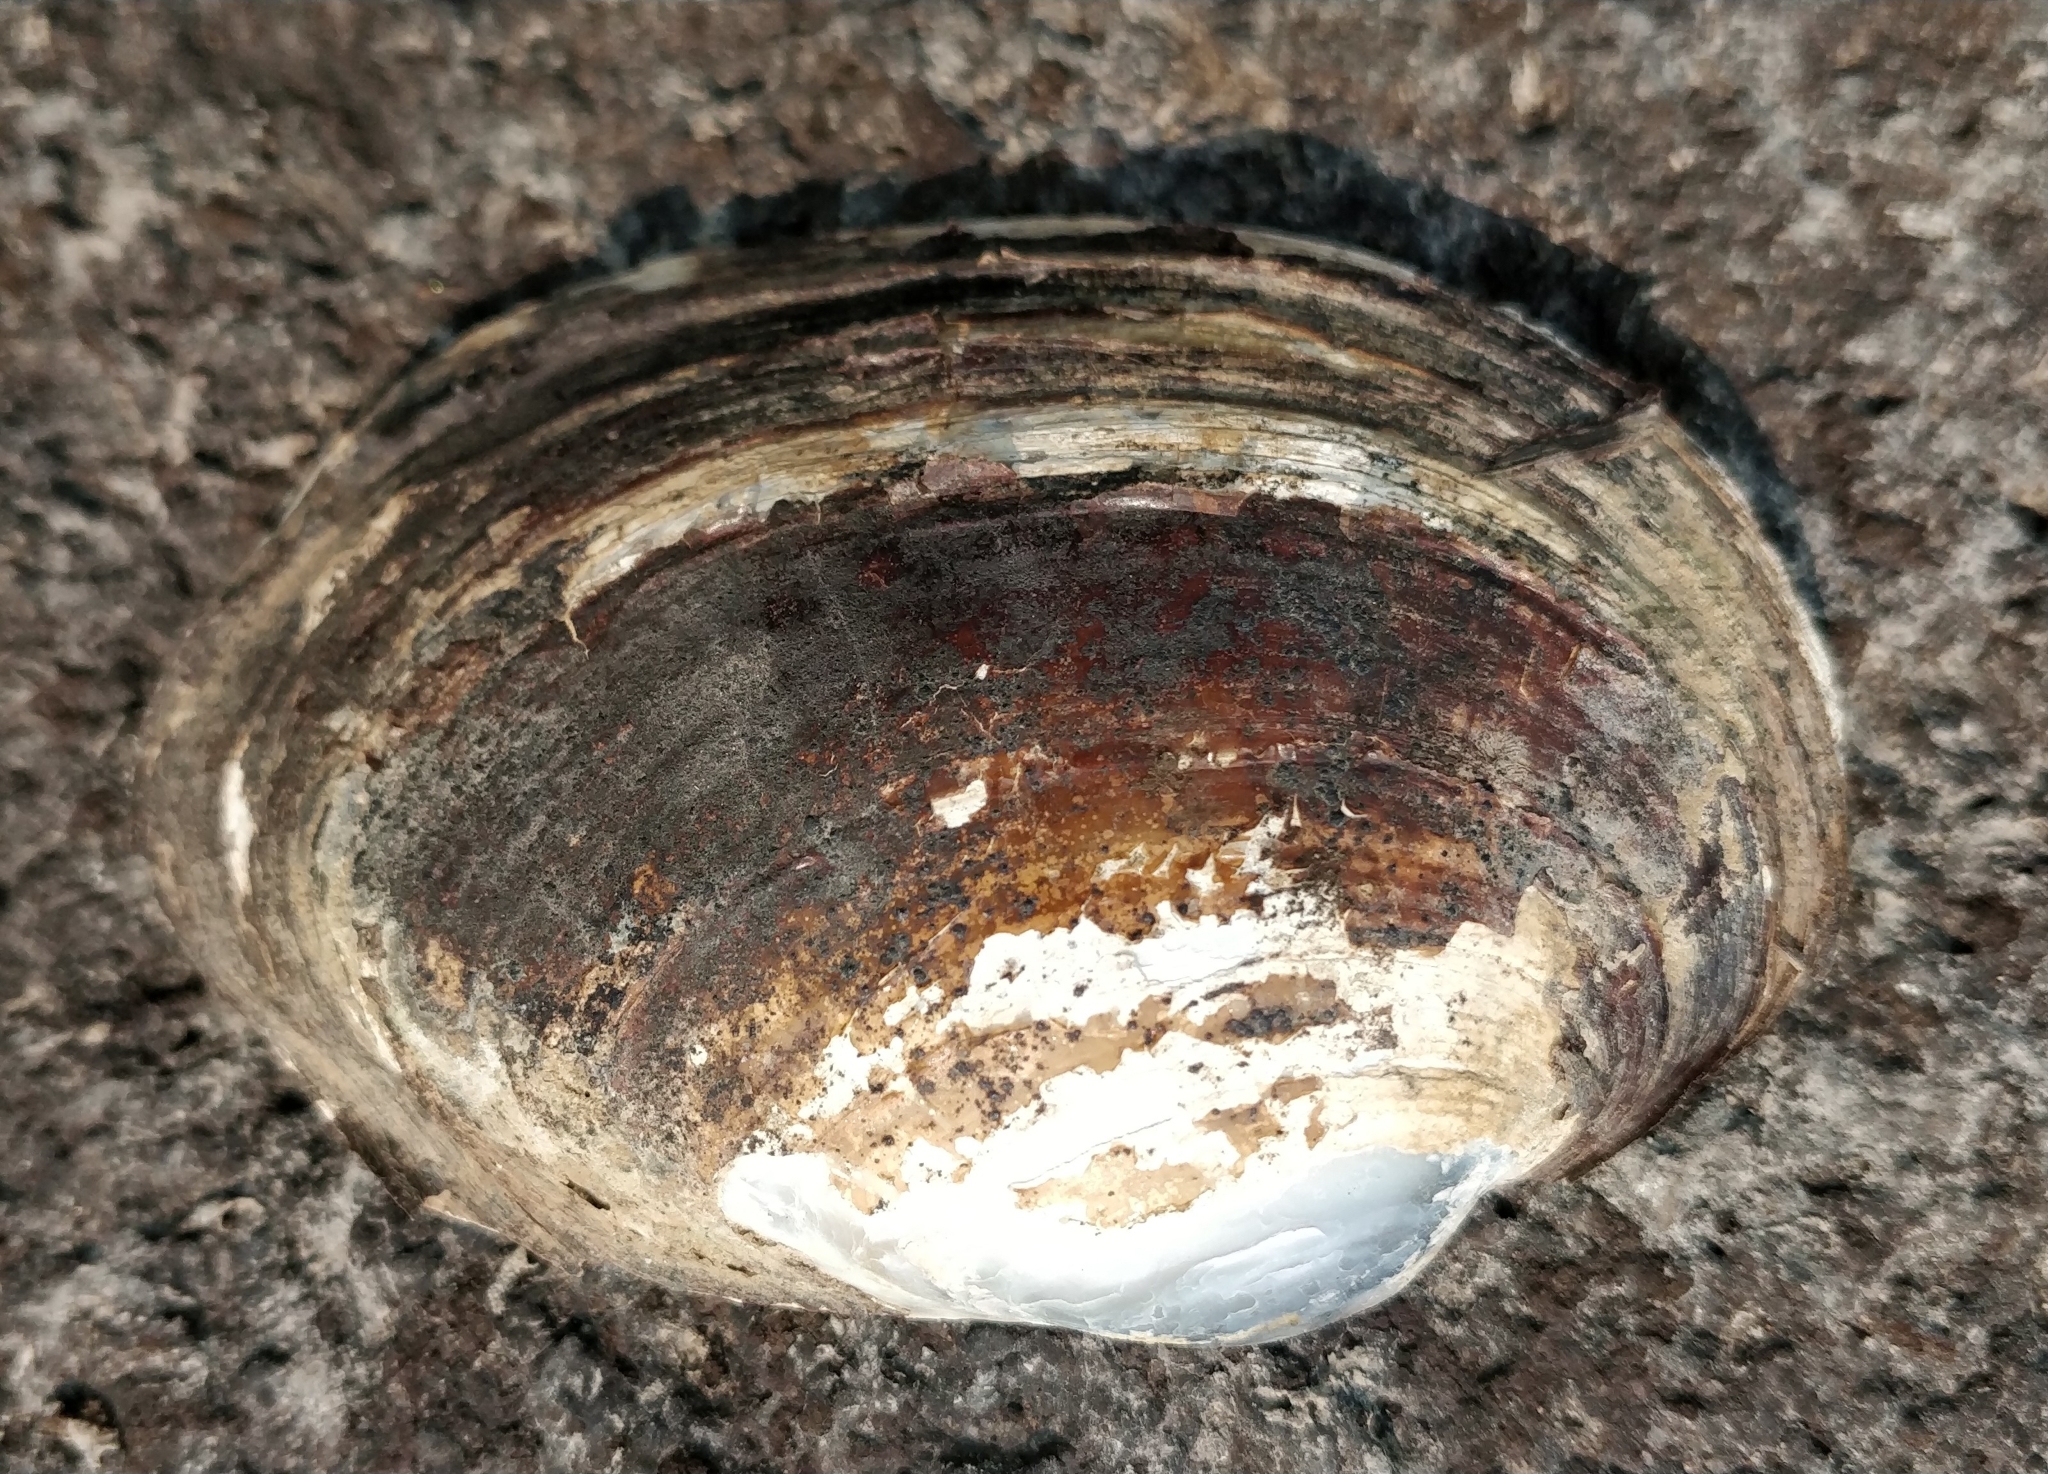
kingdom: Animalia
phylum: Mollusca
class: Bivalvia
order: Unionida
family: Unionidae
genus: Lampsilis
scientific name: Lampsilis cardium
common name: Plain pocketbook
